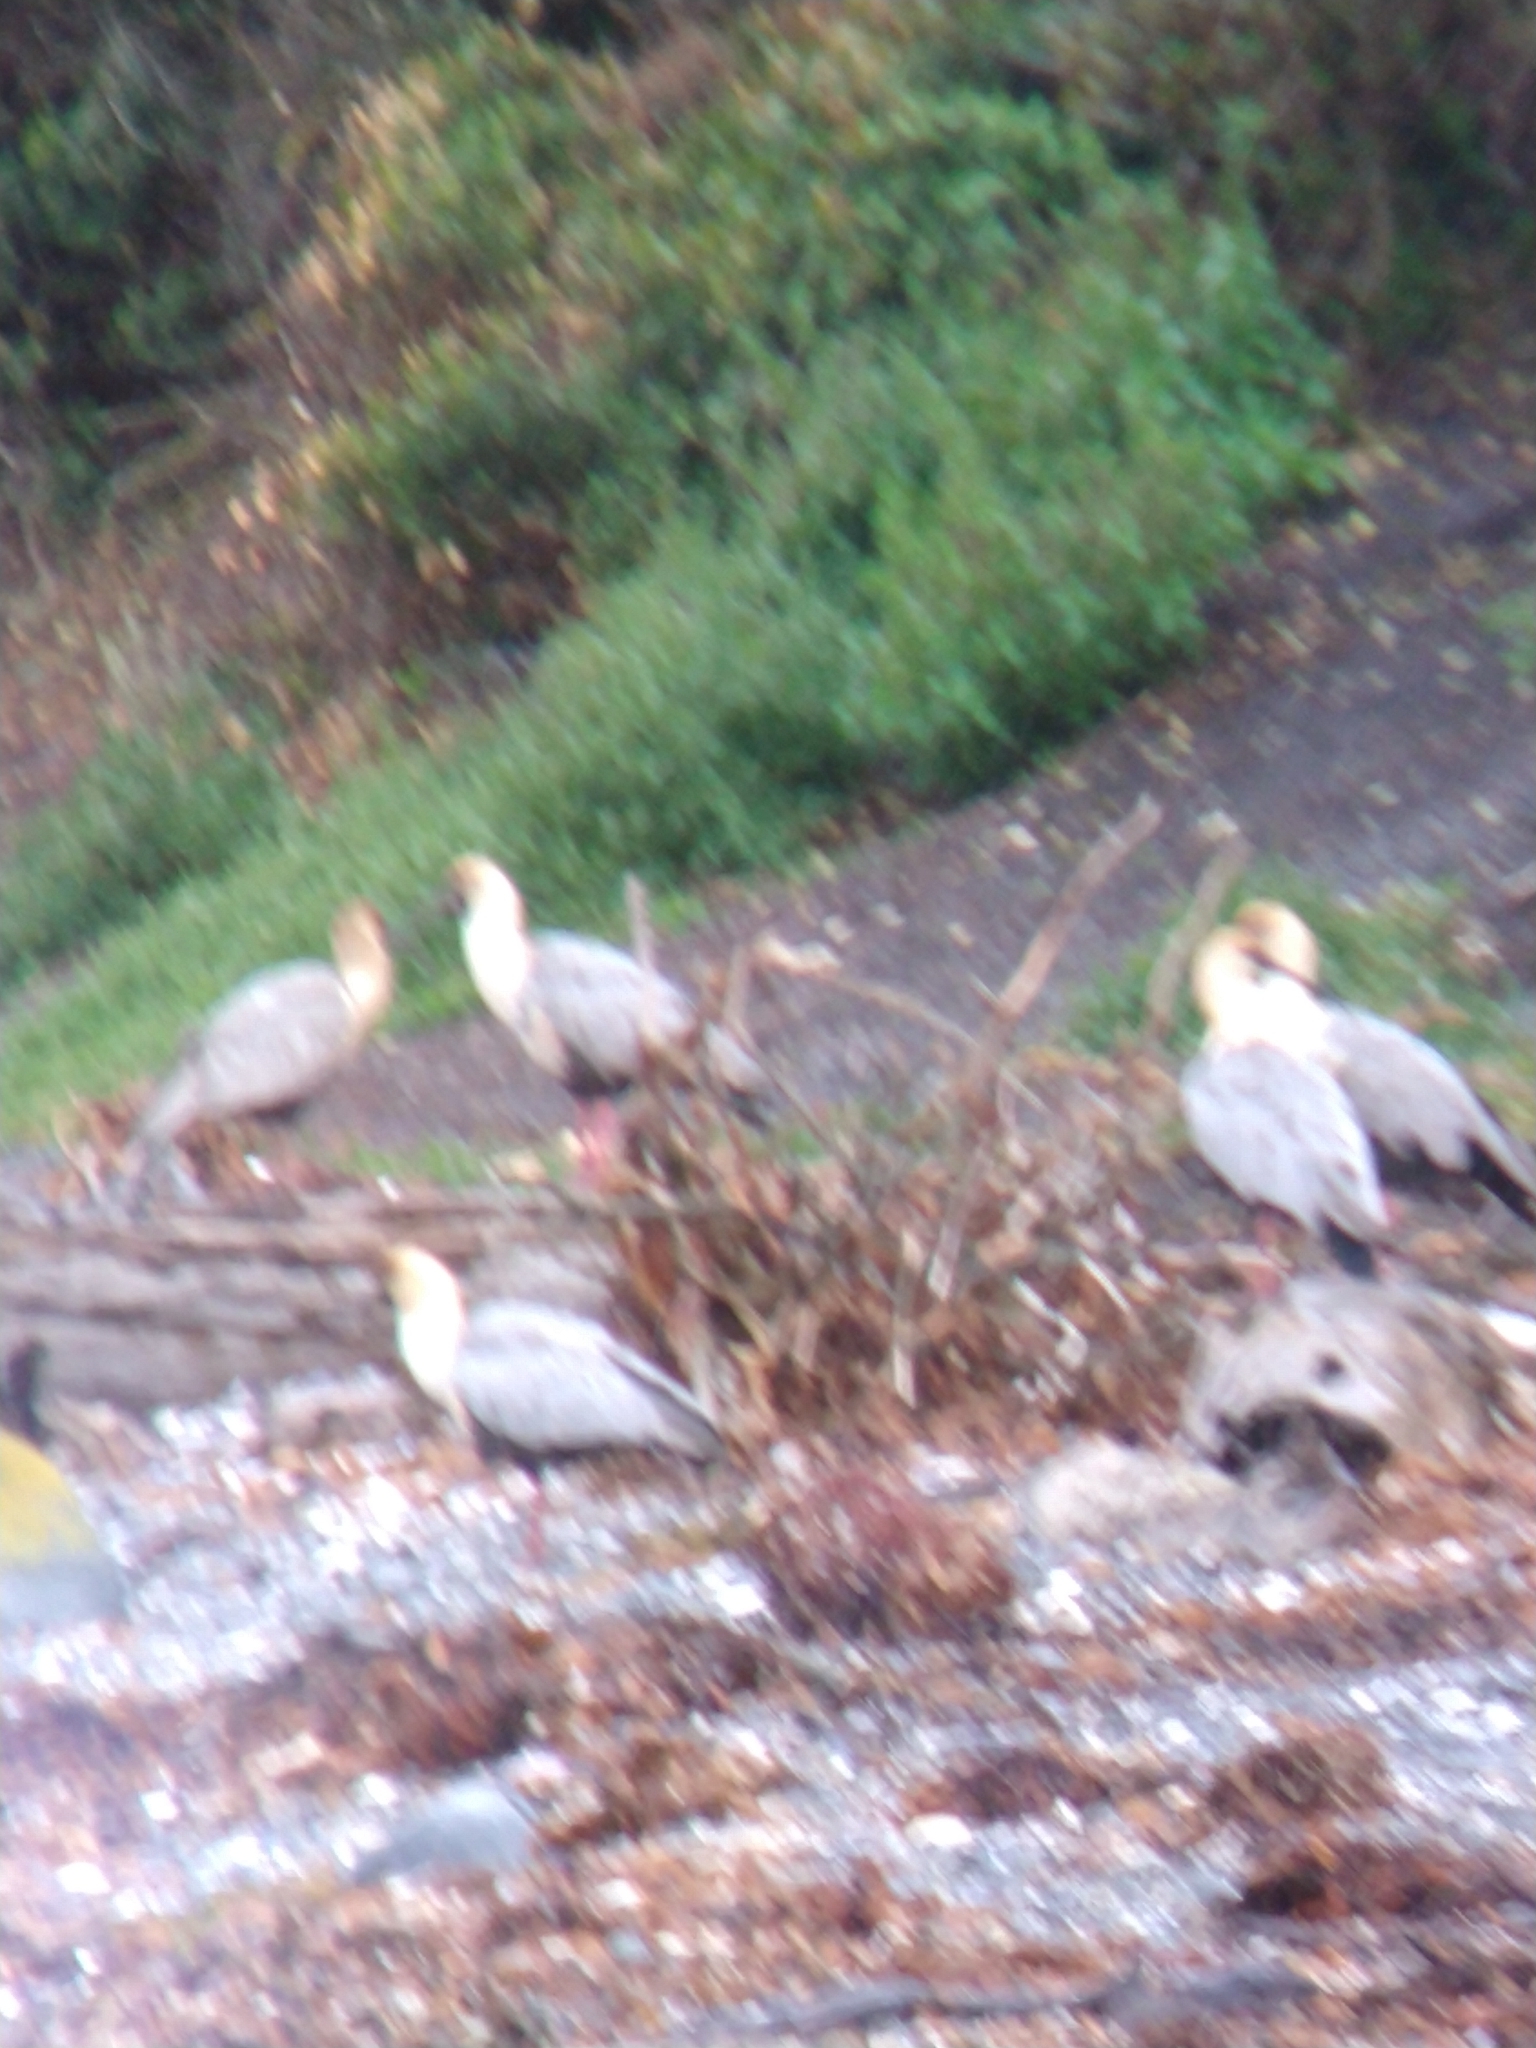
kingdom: Animalia
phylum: Chordata
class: Aves
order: Pelecaniformes
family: Threskiornithidae
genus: Theristicus
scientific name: Theristicus melanopis
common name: Black-faced ibis
